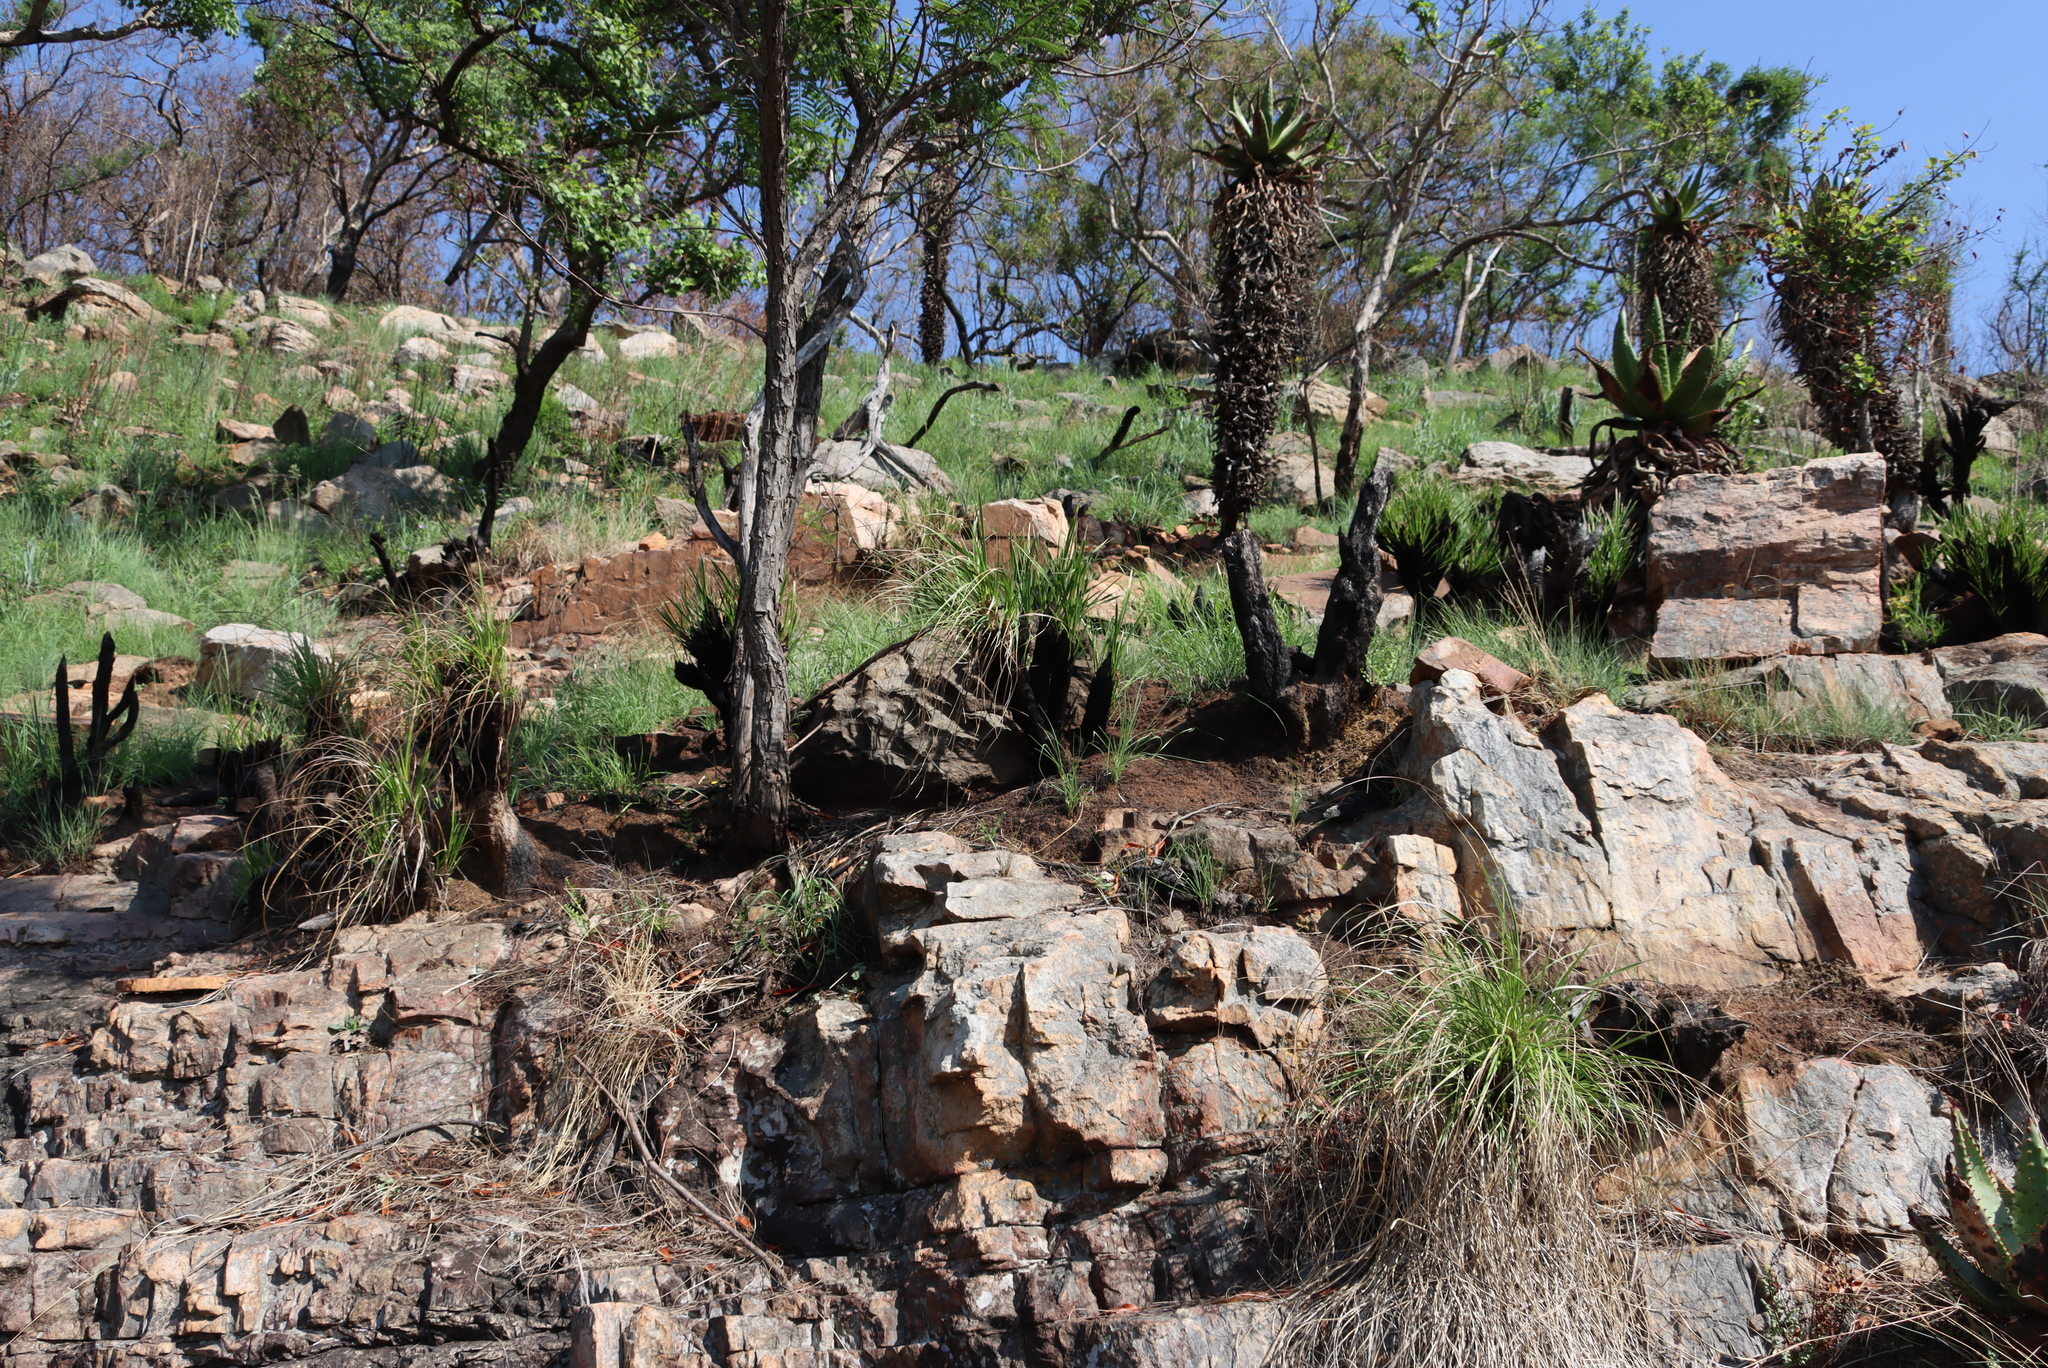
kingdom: Plantae
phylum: Tracheophyta
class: Liliopsida
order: Asparagales
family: Asphodelaceae
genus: Aloe
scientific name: Aloe marlothii
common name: Flat-flowered aloe
